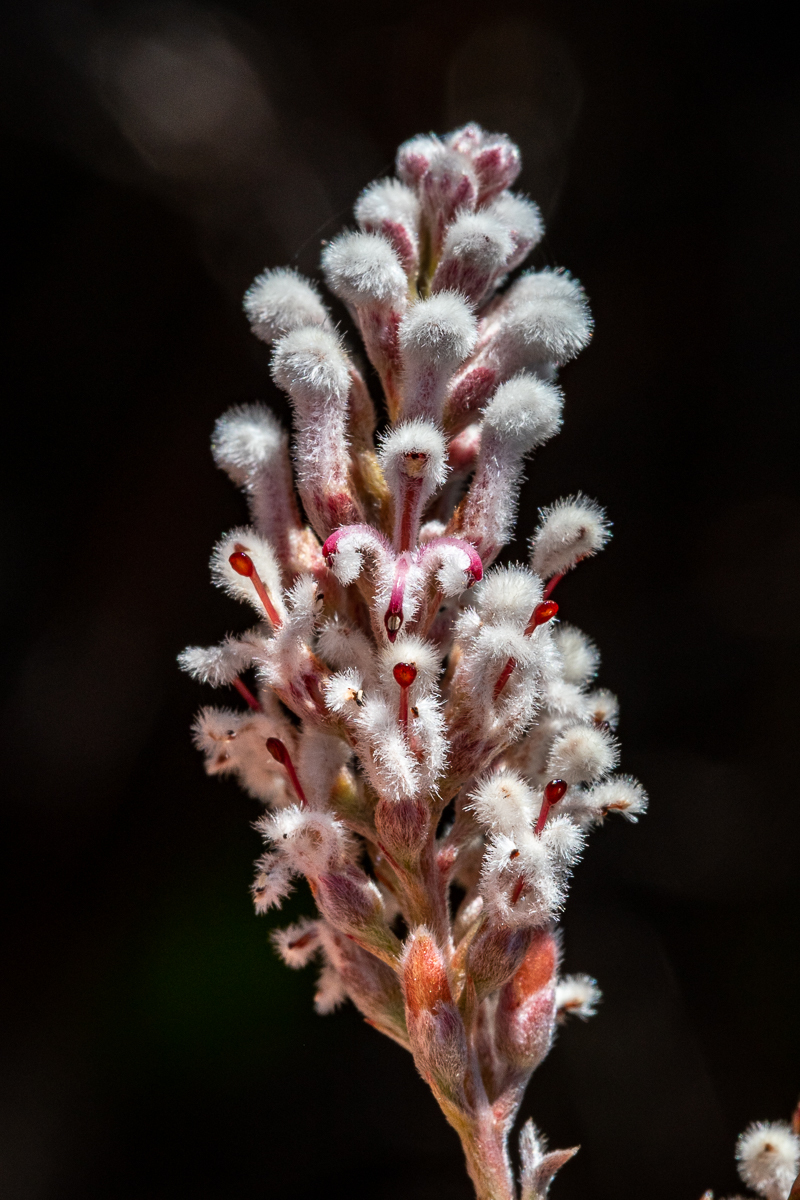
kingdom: Plantae
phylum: Tracheophyta
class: Magnoliopsida
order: Proteales
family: Proteaceae
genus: Spatalla
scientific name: Spatalla racemosa
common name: Lax-stalked spoon
